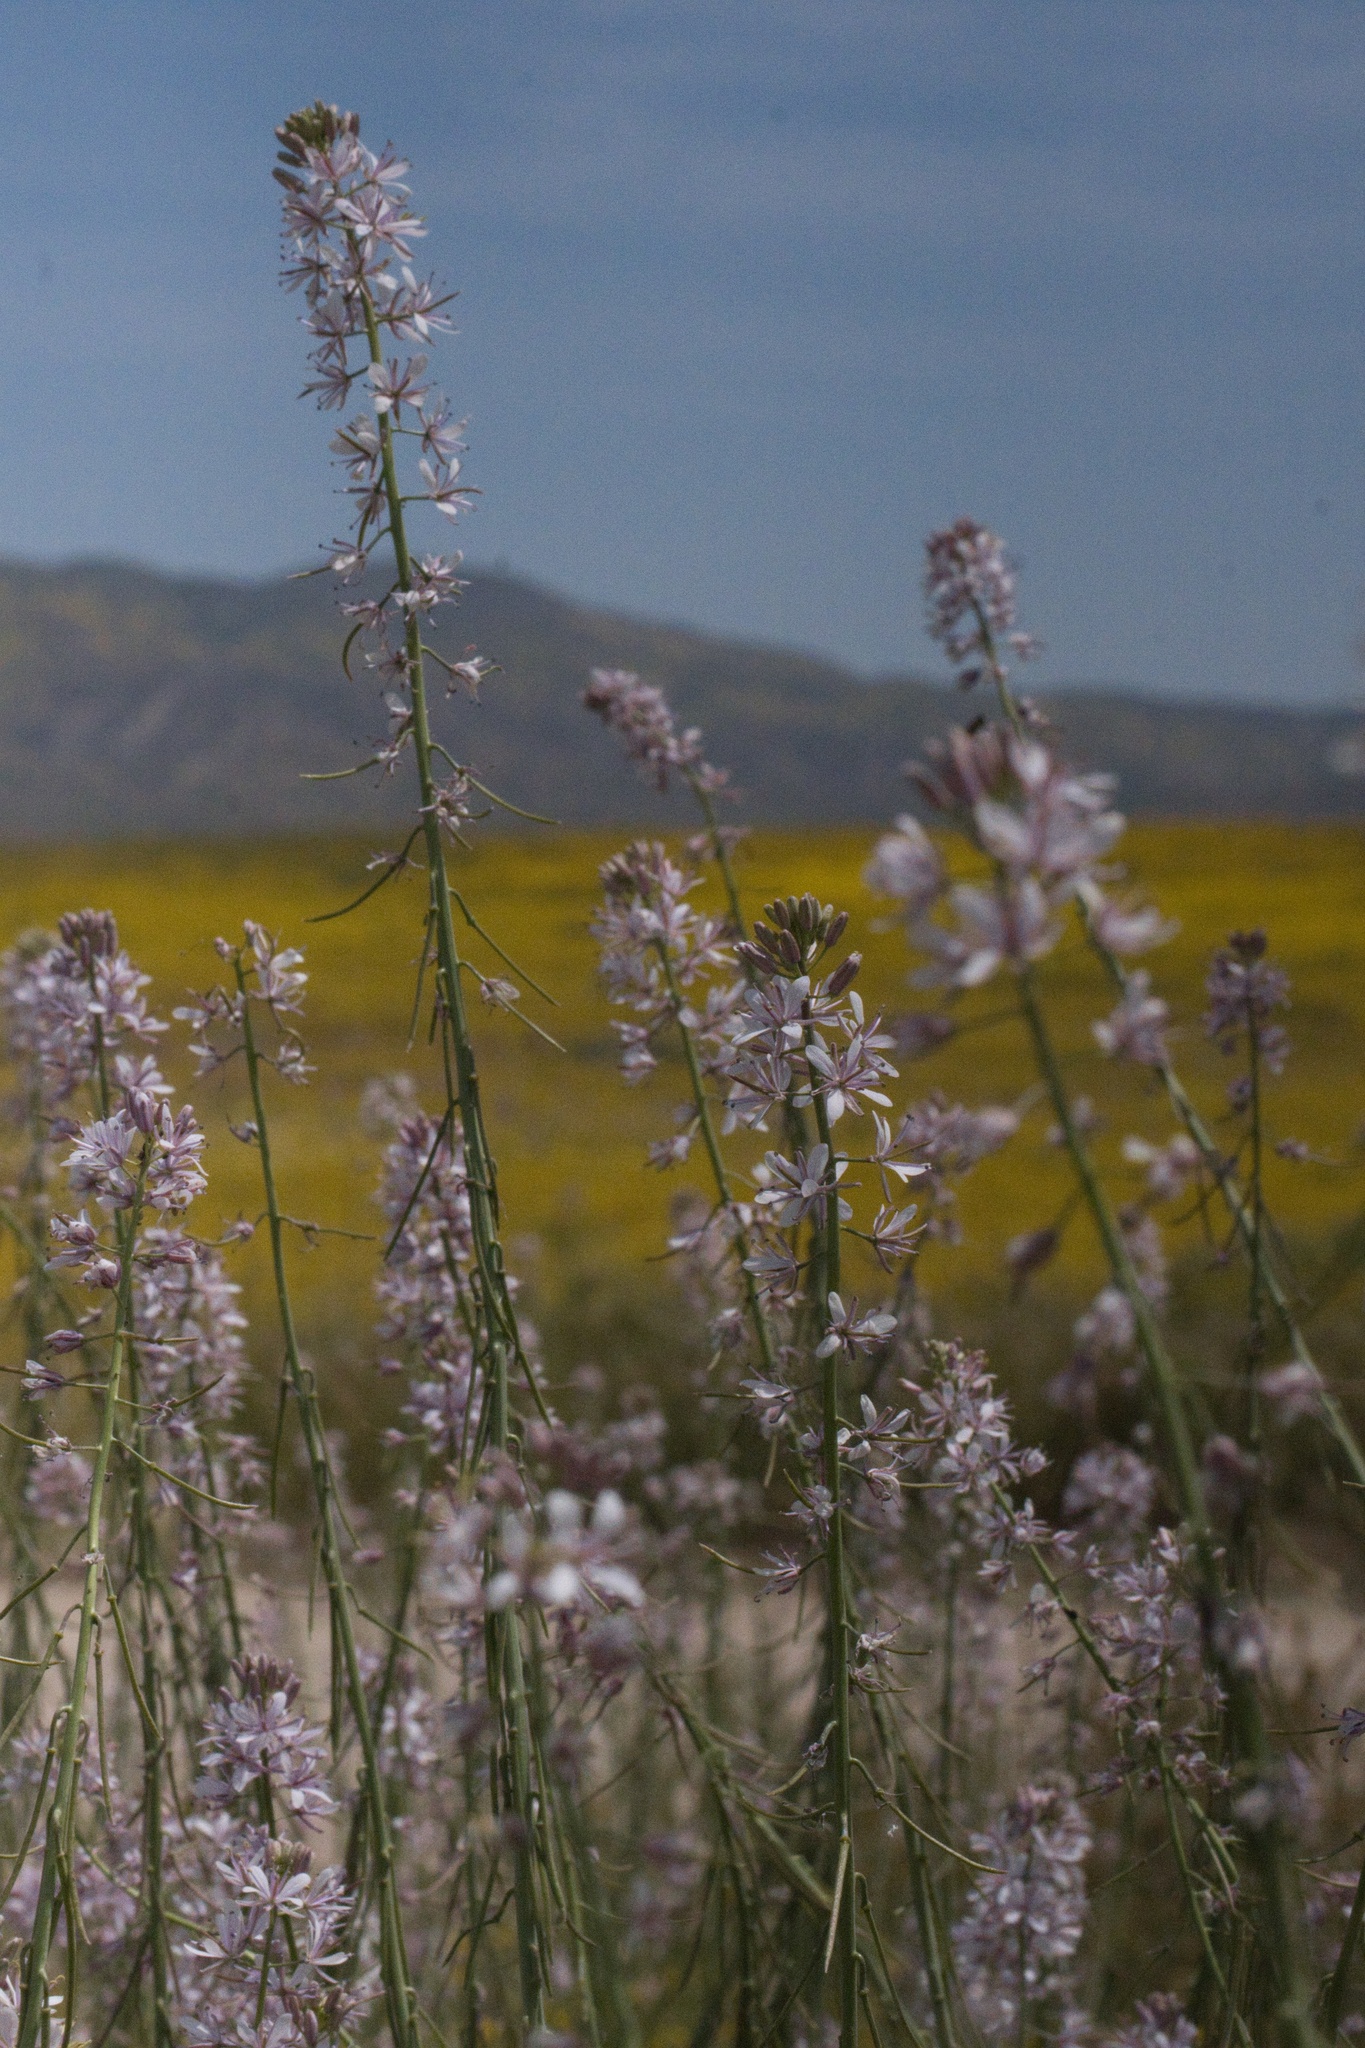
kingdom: Plantae
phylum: Tracheophyta
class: Magnoliopsida
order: Brassicales
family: Brassicaceae
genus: Streptanthus
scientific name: Streptanthus anceps
